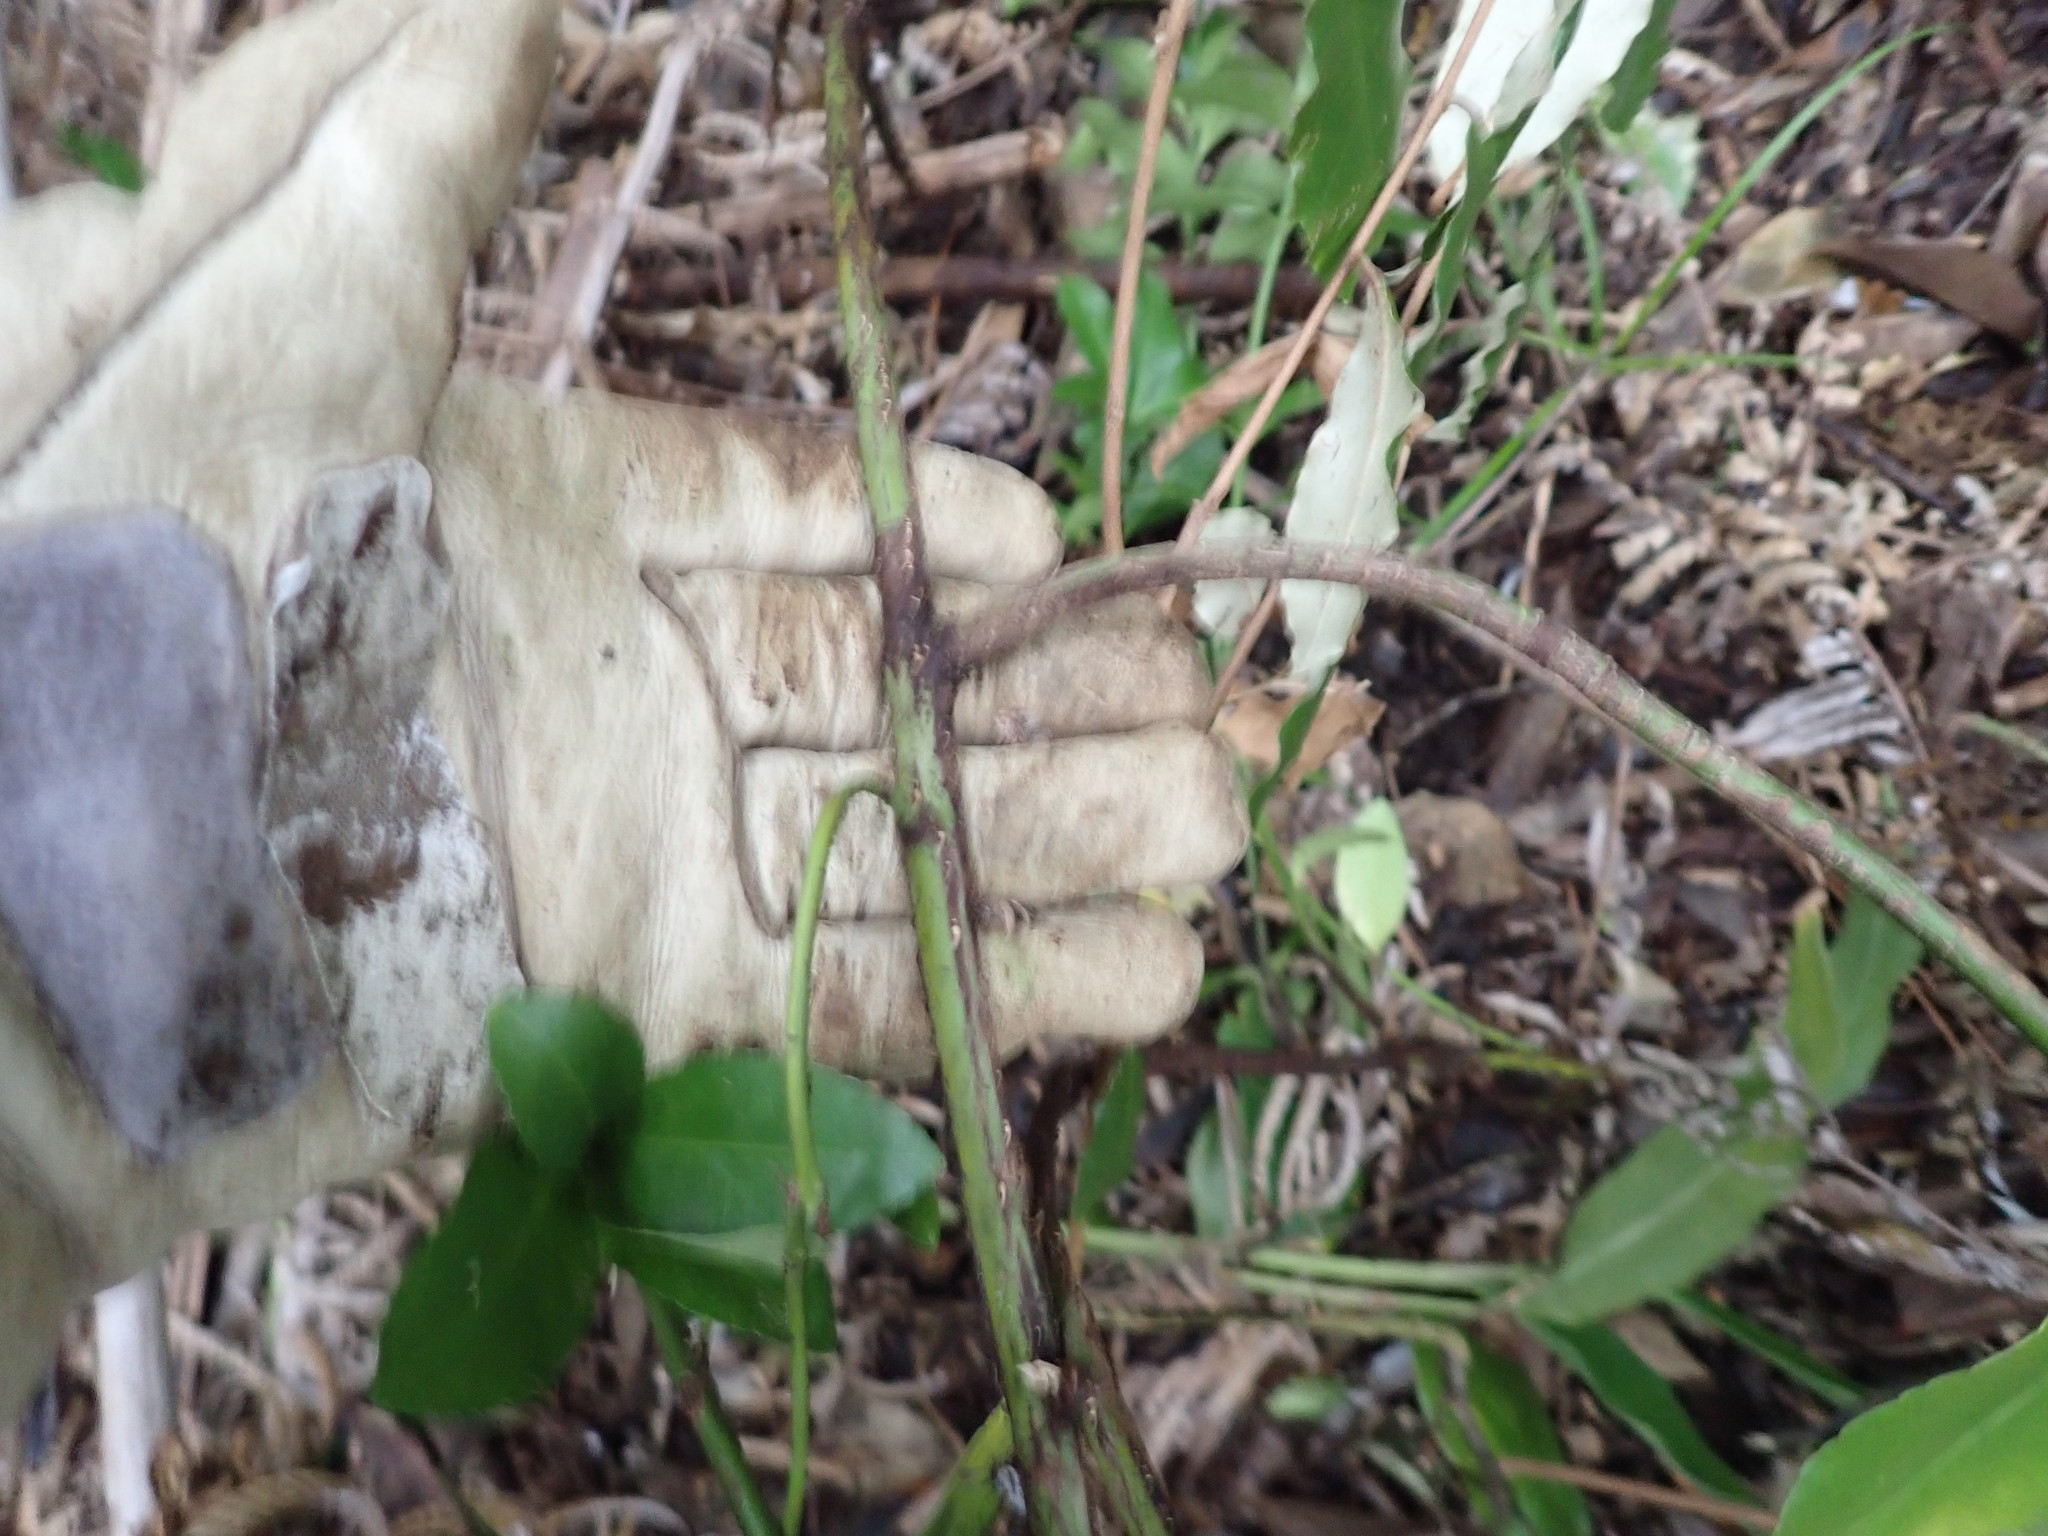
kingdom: Plantae
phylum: Tracheophyta
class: Magnoliopsida
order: Celastrales
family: Celastraceae
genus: Euonymus
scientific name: Euonymus japonicus
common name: Japanese spindletree
